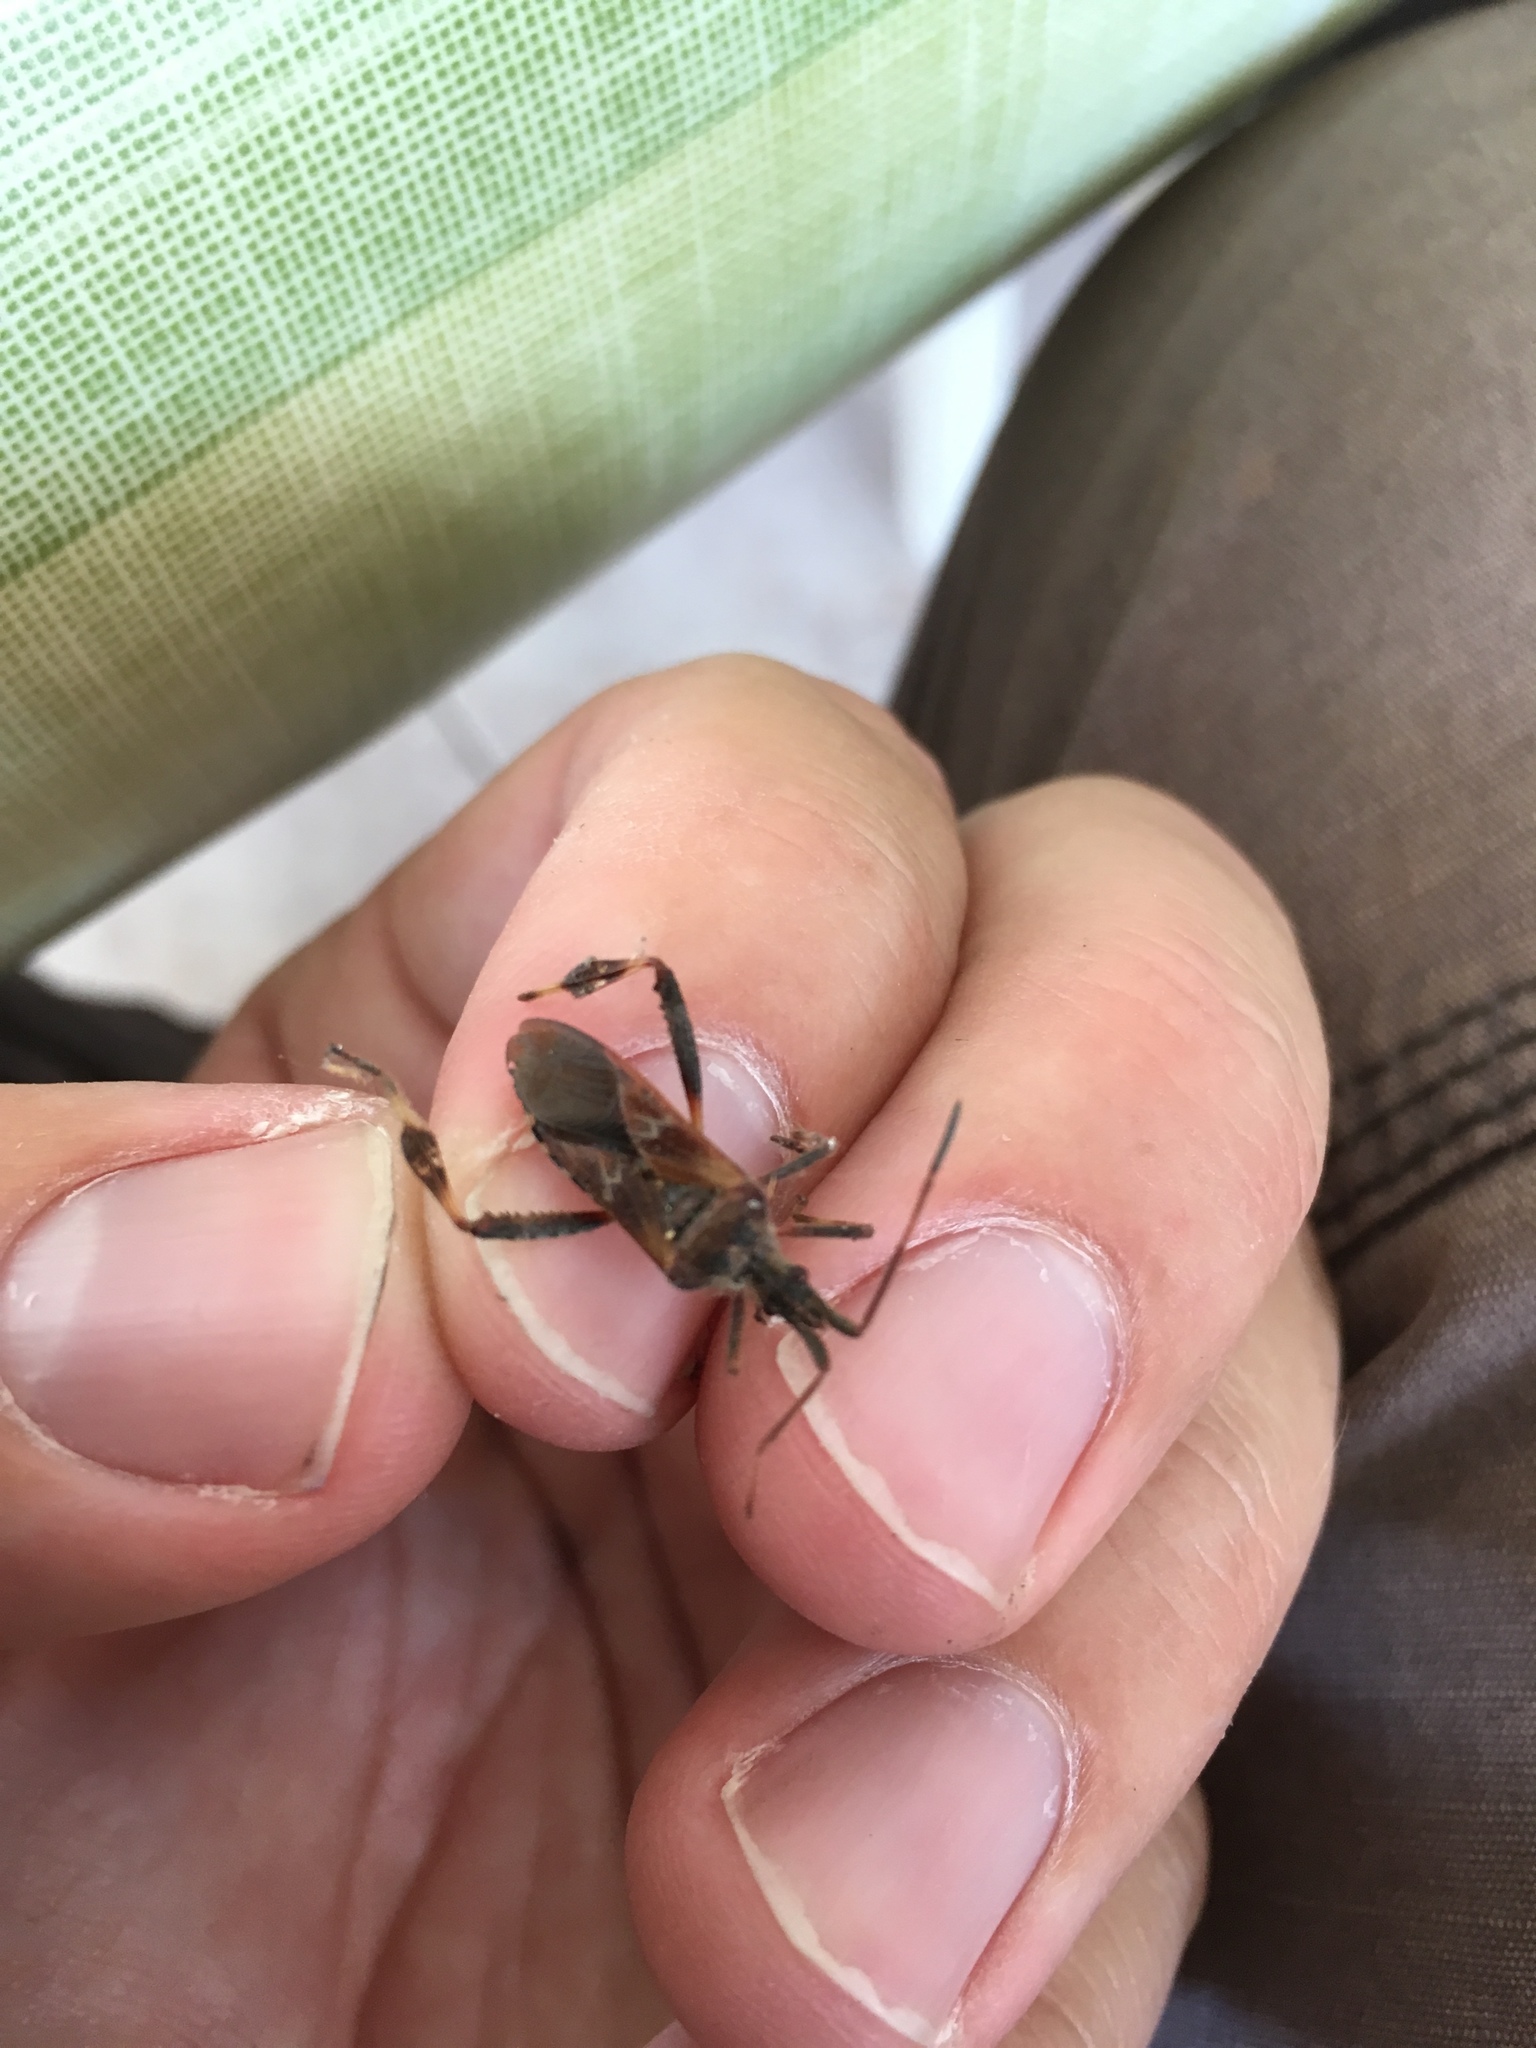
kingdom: Animalia
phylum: Arthropoda
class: Insecta
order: Hemiptera
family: Coreidae
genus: Leptoglossus
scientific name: Leptoglossus occidentalis
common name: Western conifer-seed bug
